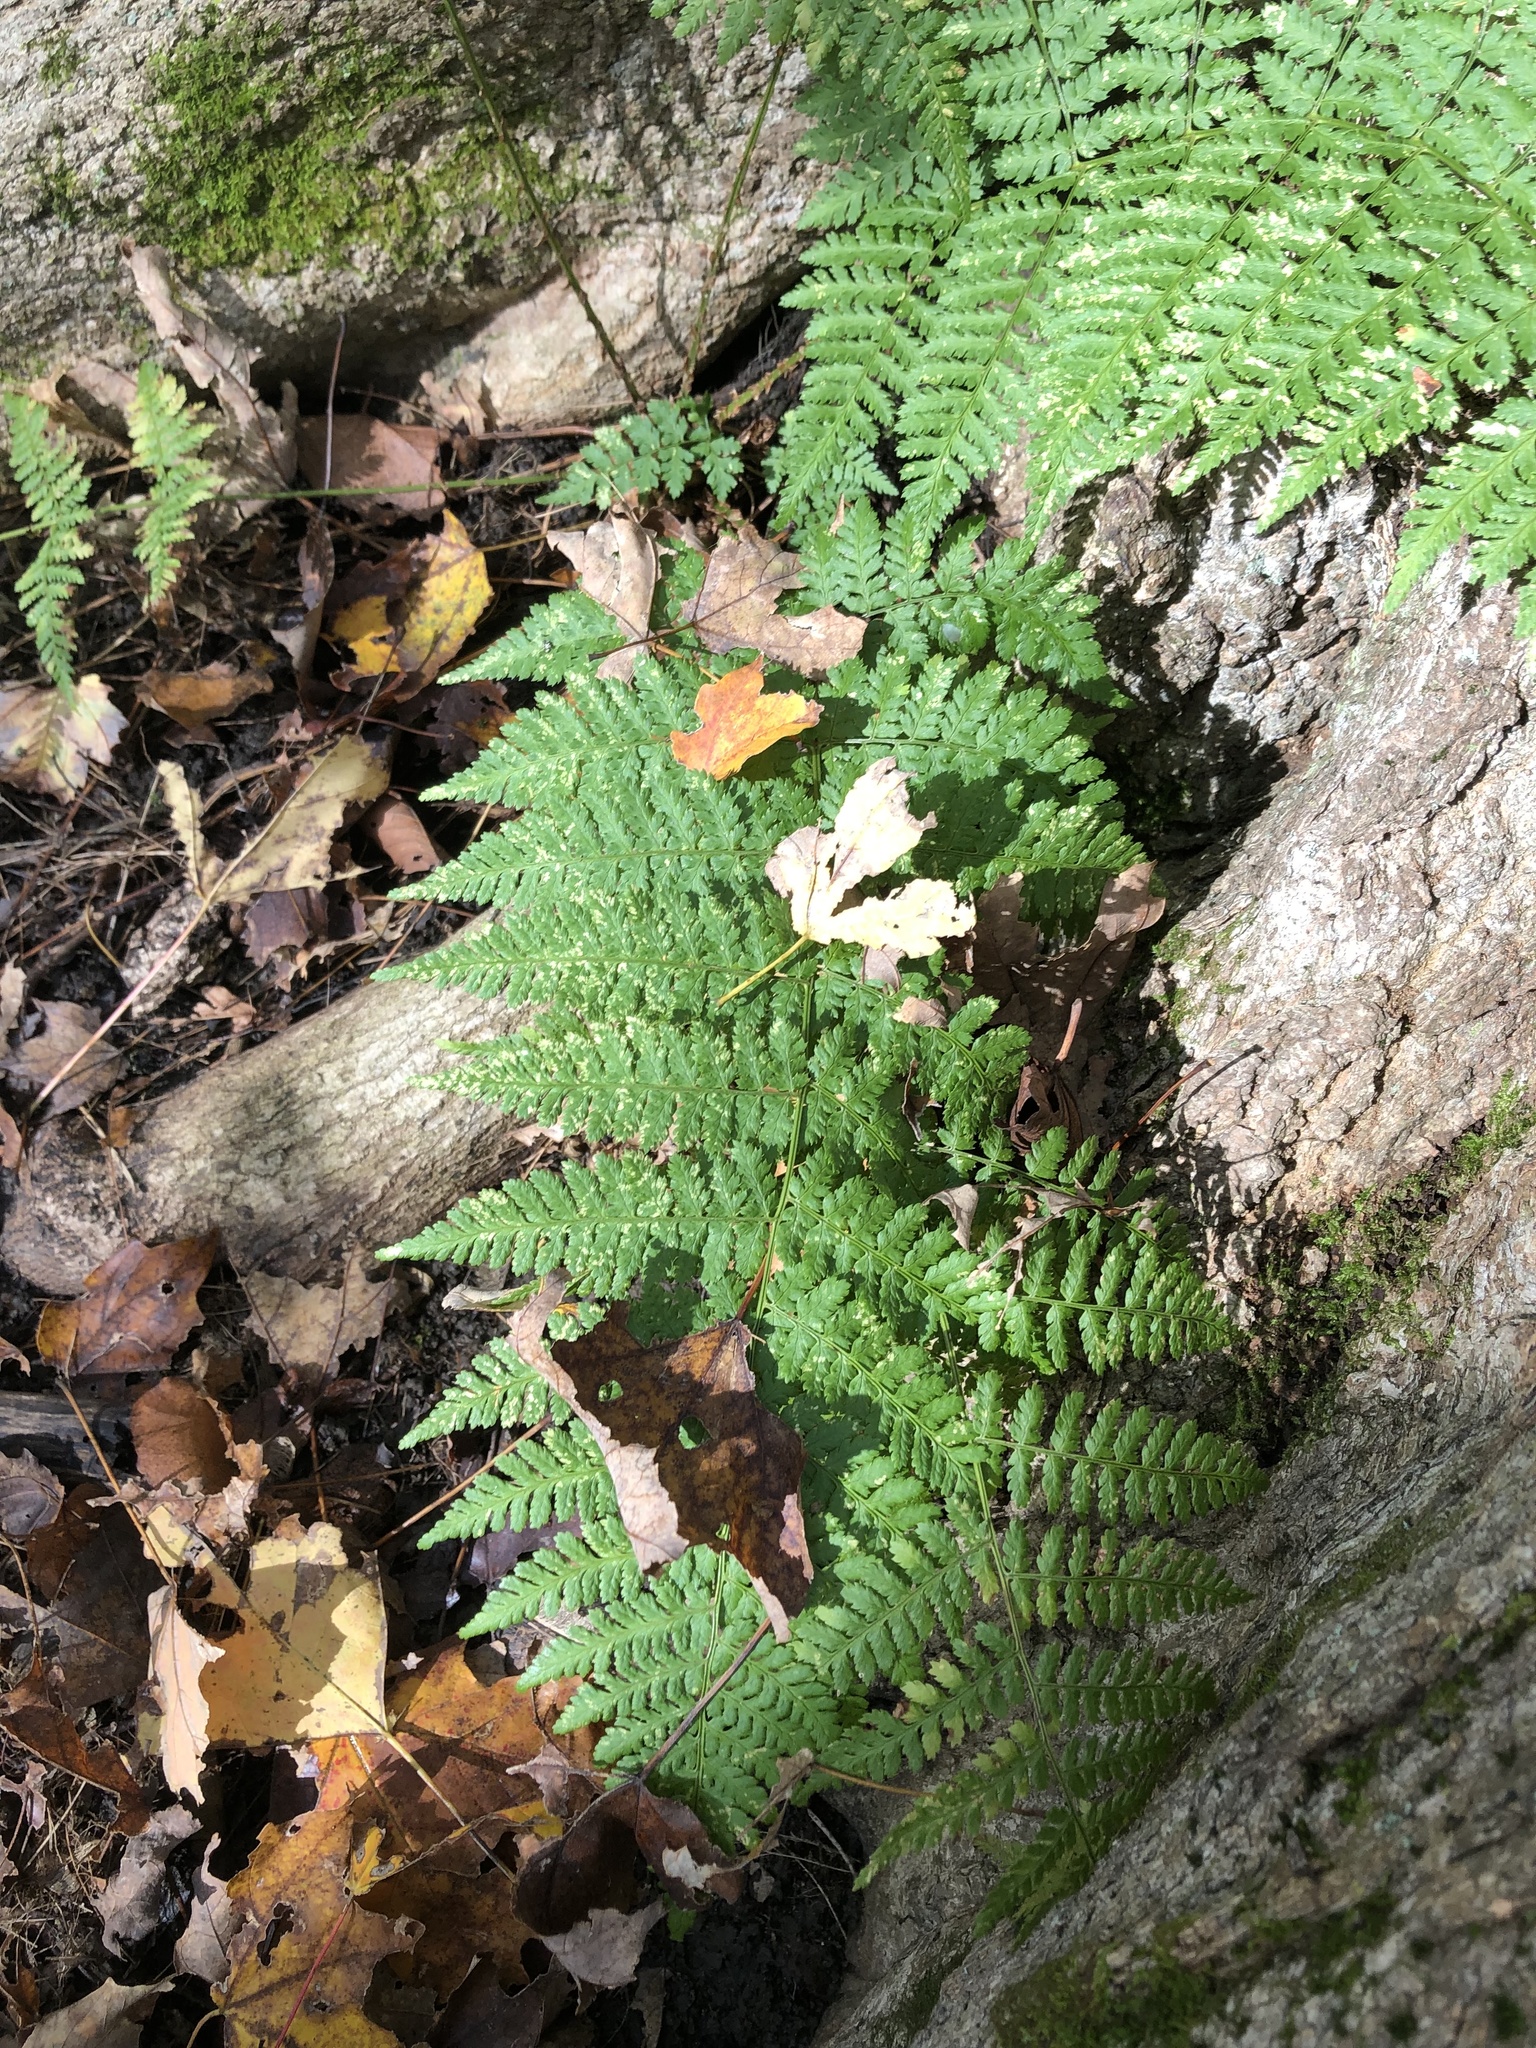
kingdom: Plantae
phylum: Tracheophyta
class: Polypodiopsida
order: Polypodiales
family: Dryopteridaceae
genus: Dryopteris
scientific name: Dryopteris intermedia
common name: Evergreen wood fern
